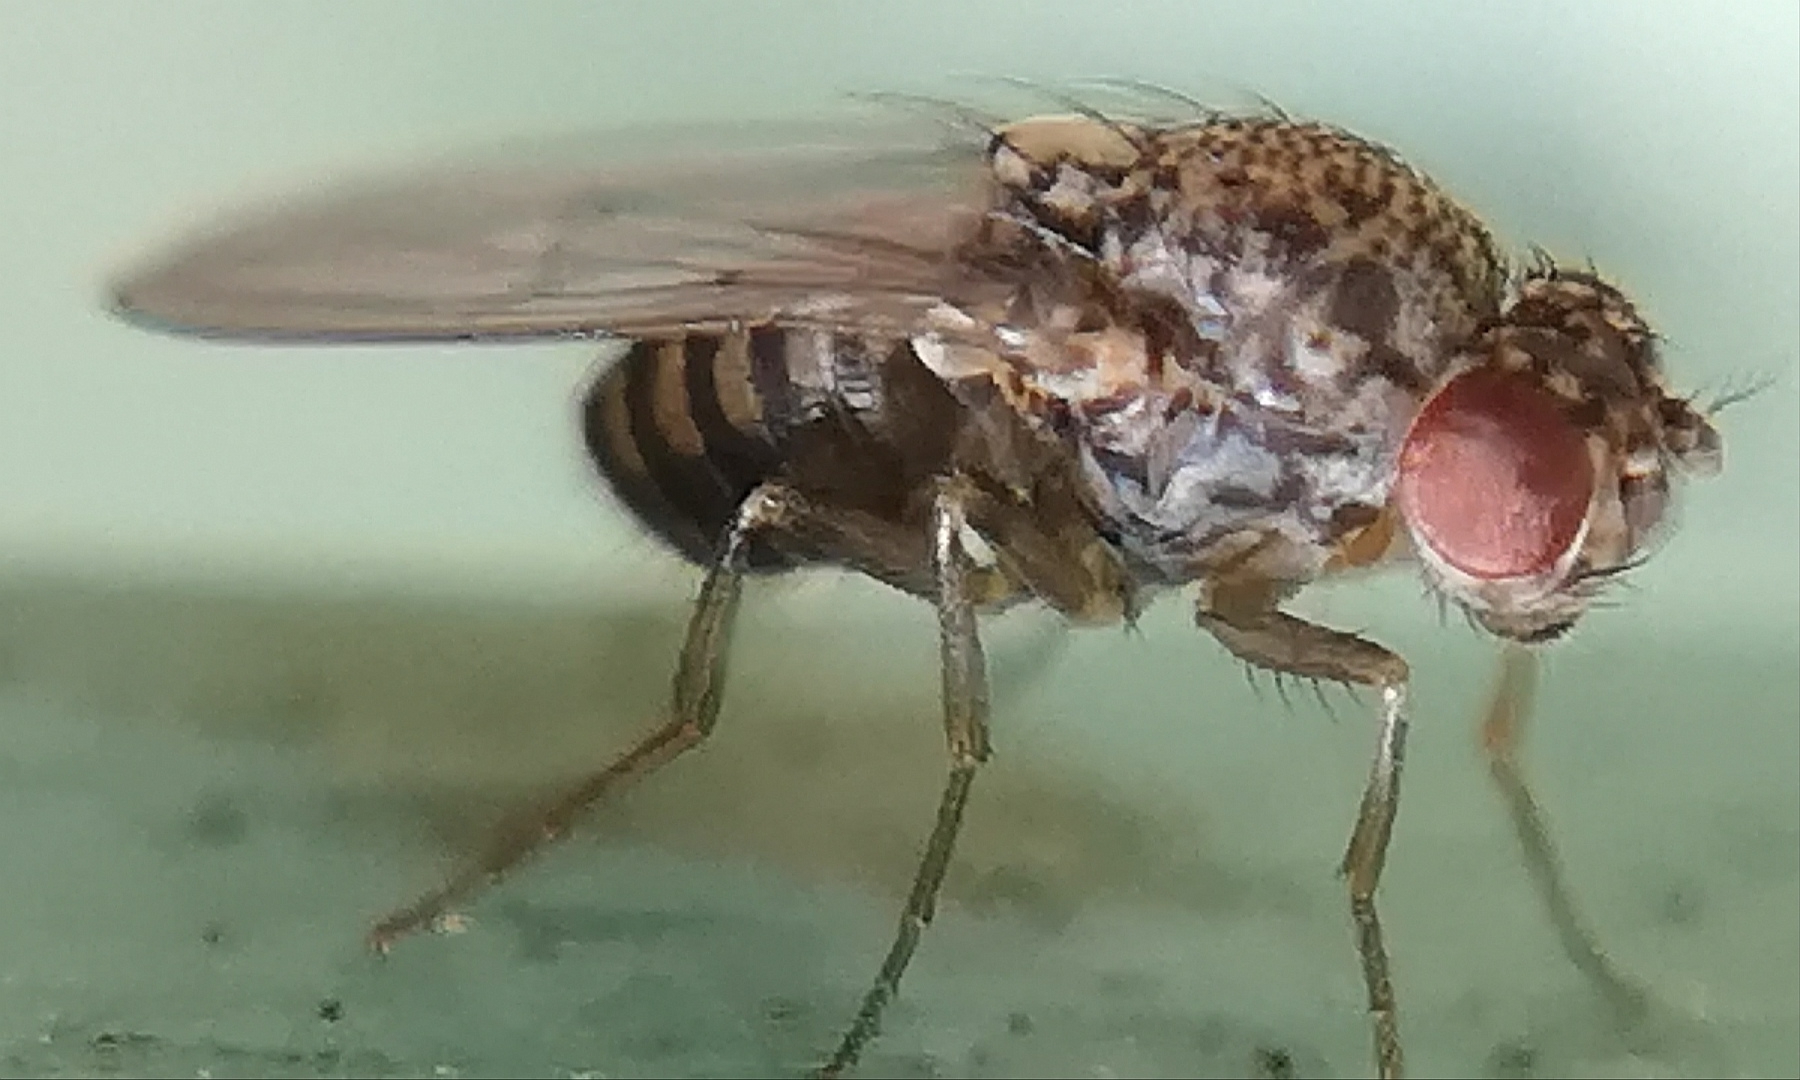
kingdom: Animalia
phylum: Arthropoda
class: Insecta
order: Diptera
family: Drosophilidae
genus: Drosophila
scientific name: Drosophila hydei
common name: Pomace fly
